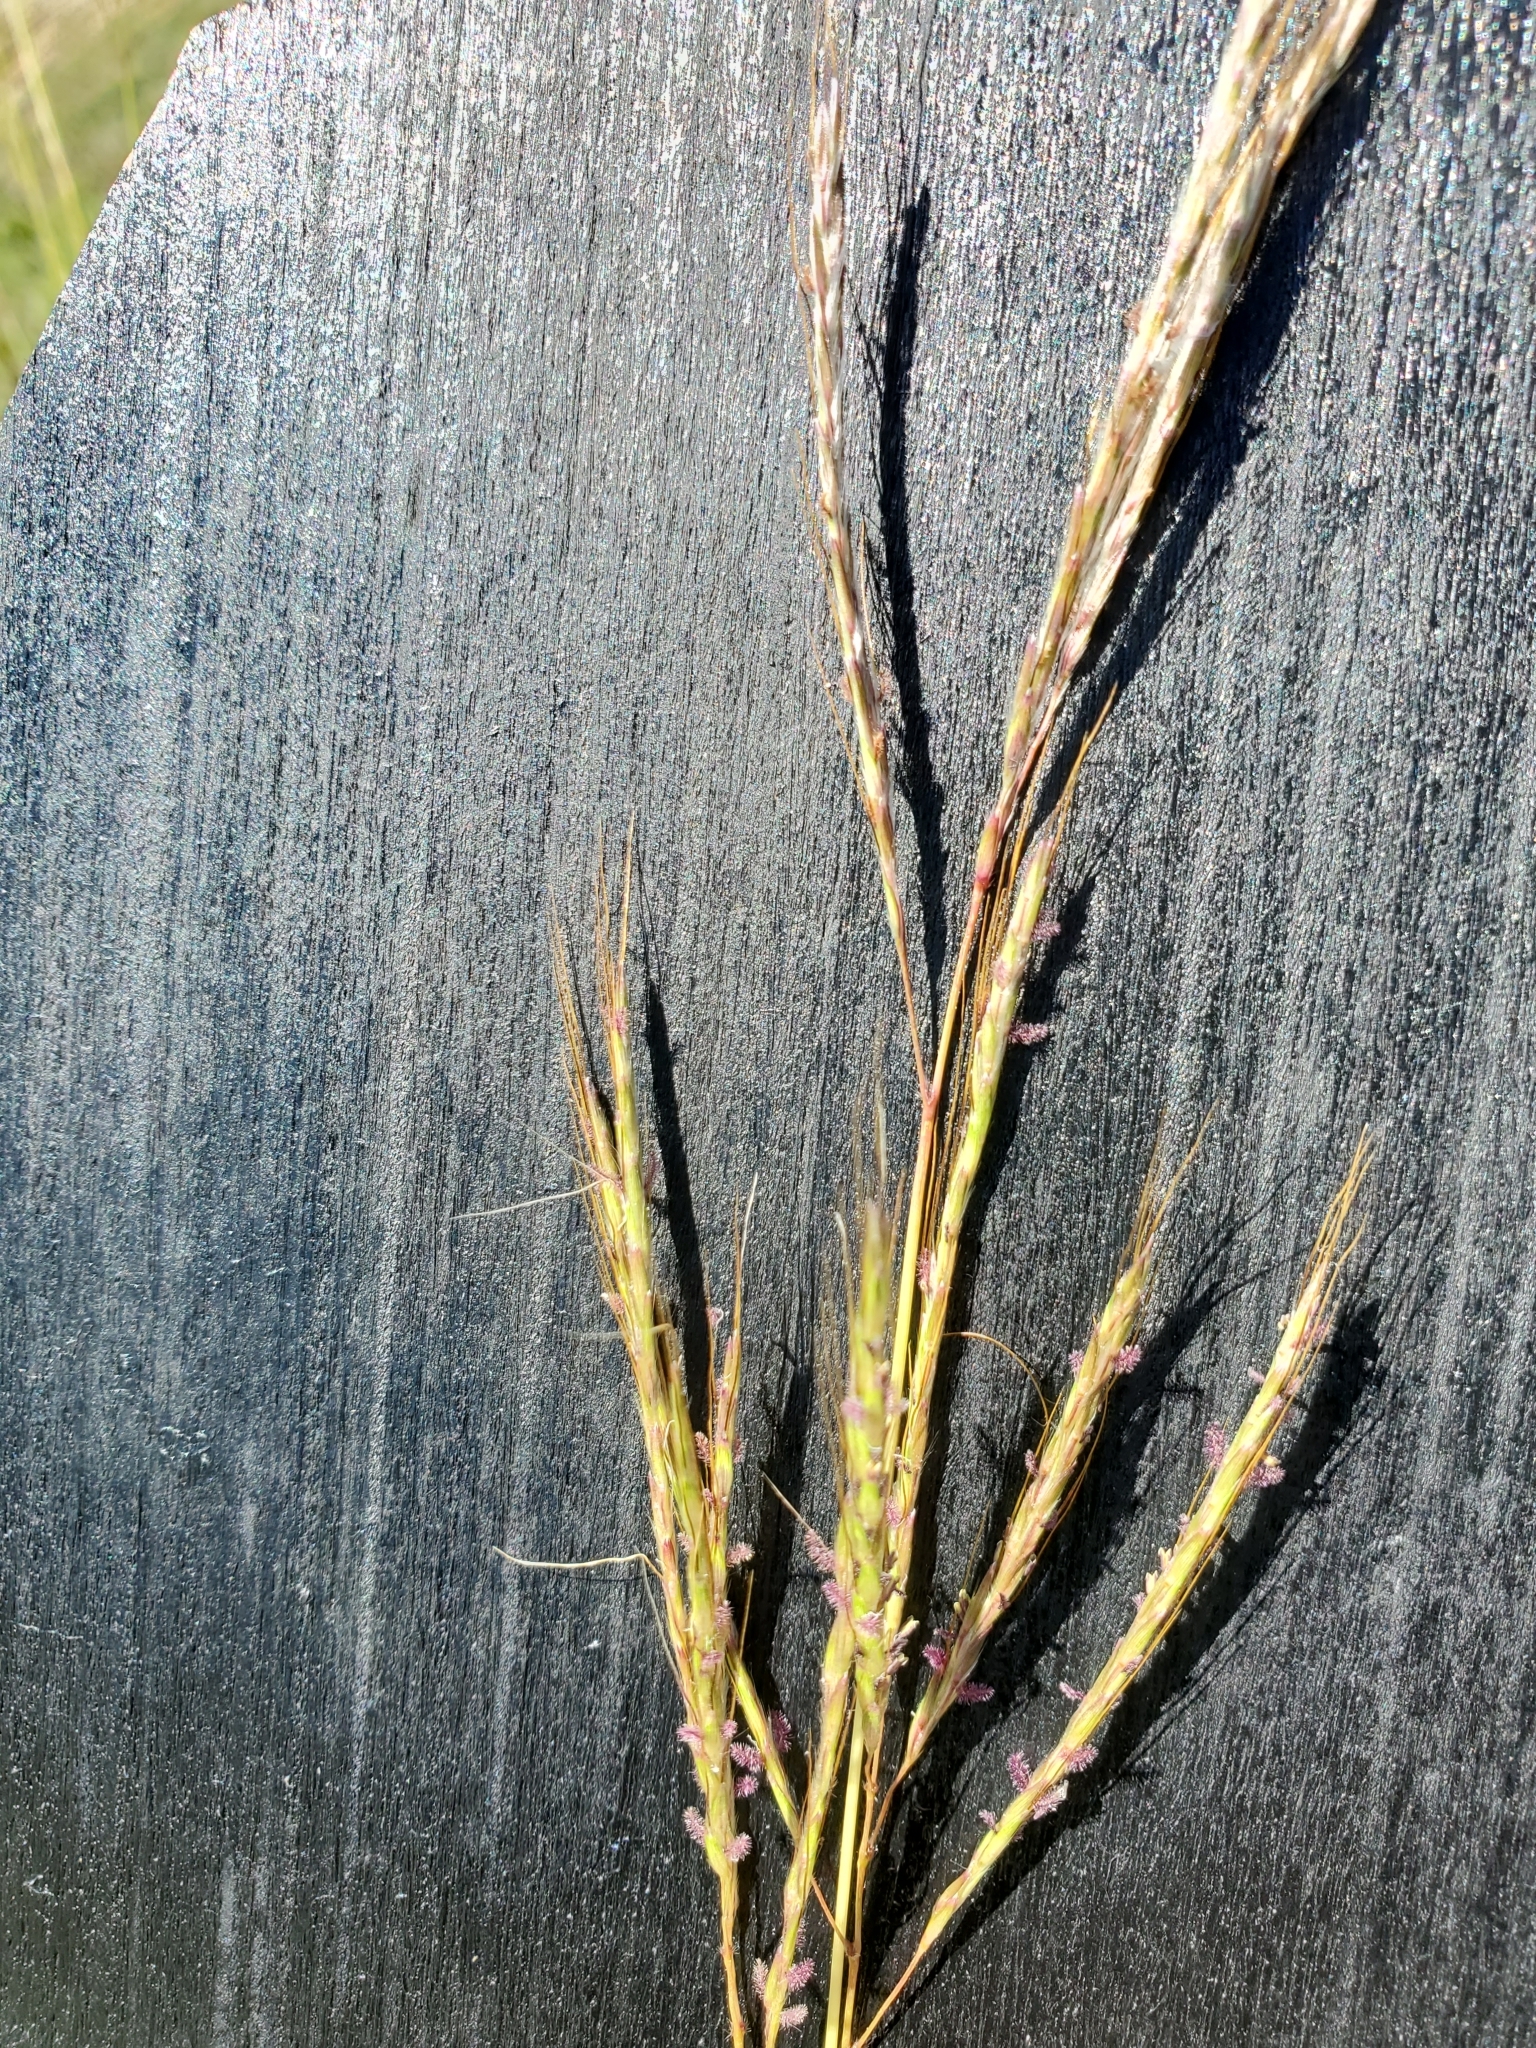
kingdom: Plantae
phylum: Tracheophyta
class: Liliopsida
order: Poales
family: Poaceae
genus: Bothriochloa
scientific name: Bothriochloa ischaemum
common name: Yellow bluestem
